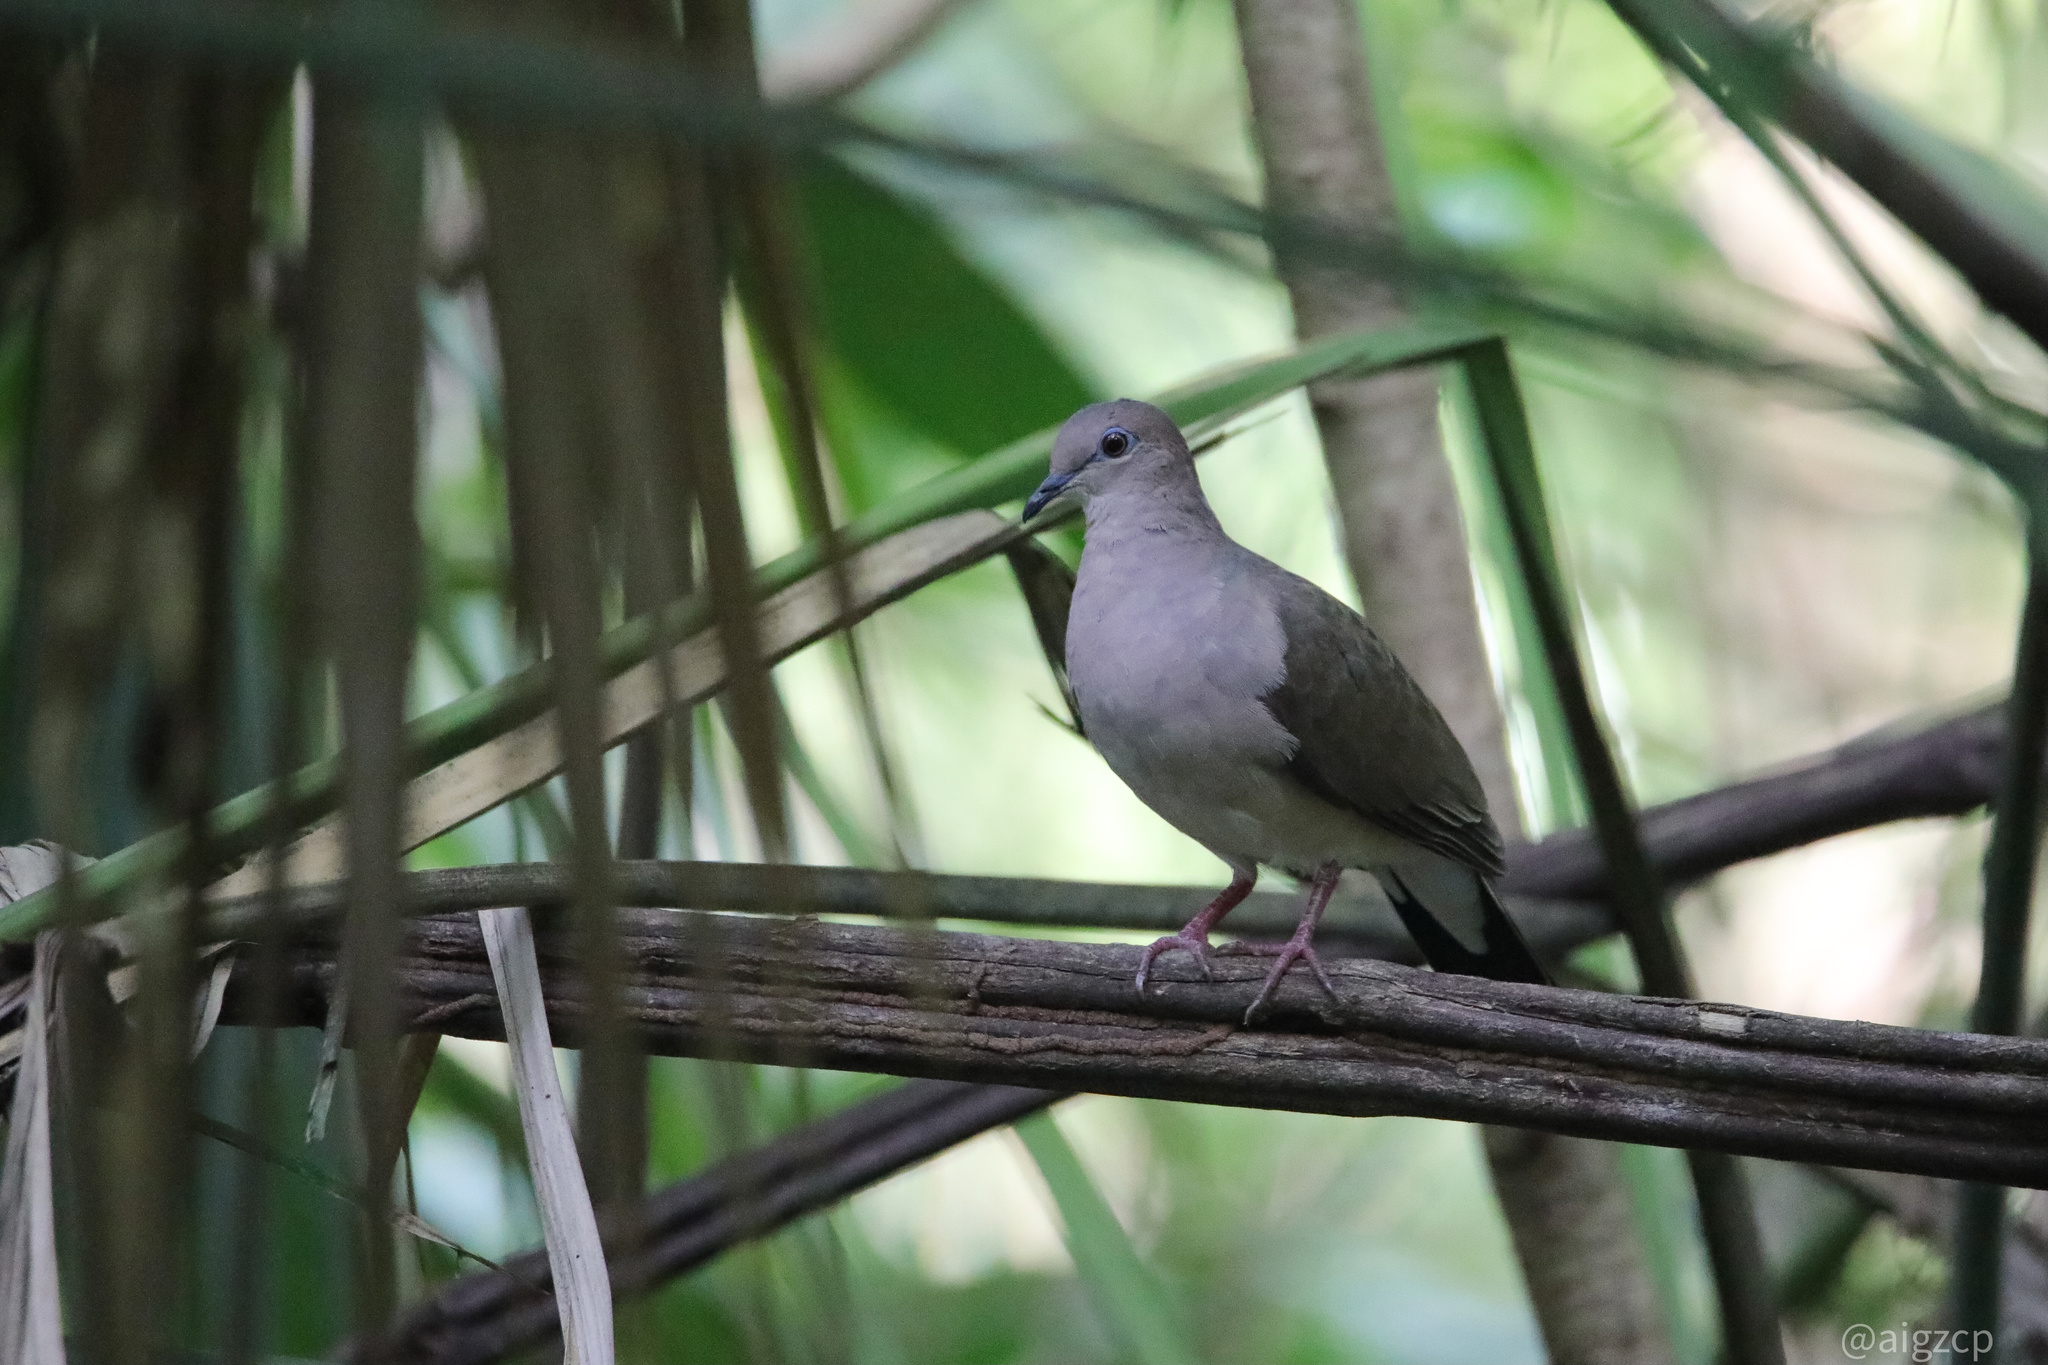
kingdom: Animalia
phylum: Chordata
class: Aves
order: Columbiformes
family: Columbidae
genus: Leptotila
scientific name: Leptotila verreauxi
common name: White-tipped dove
